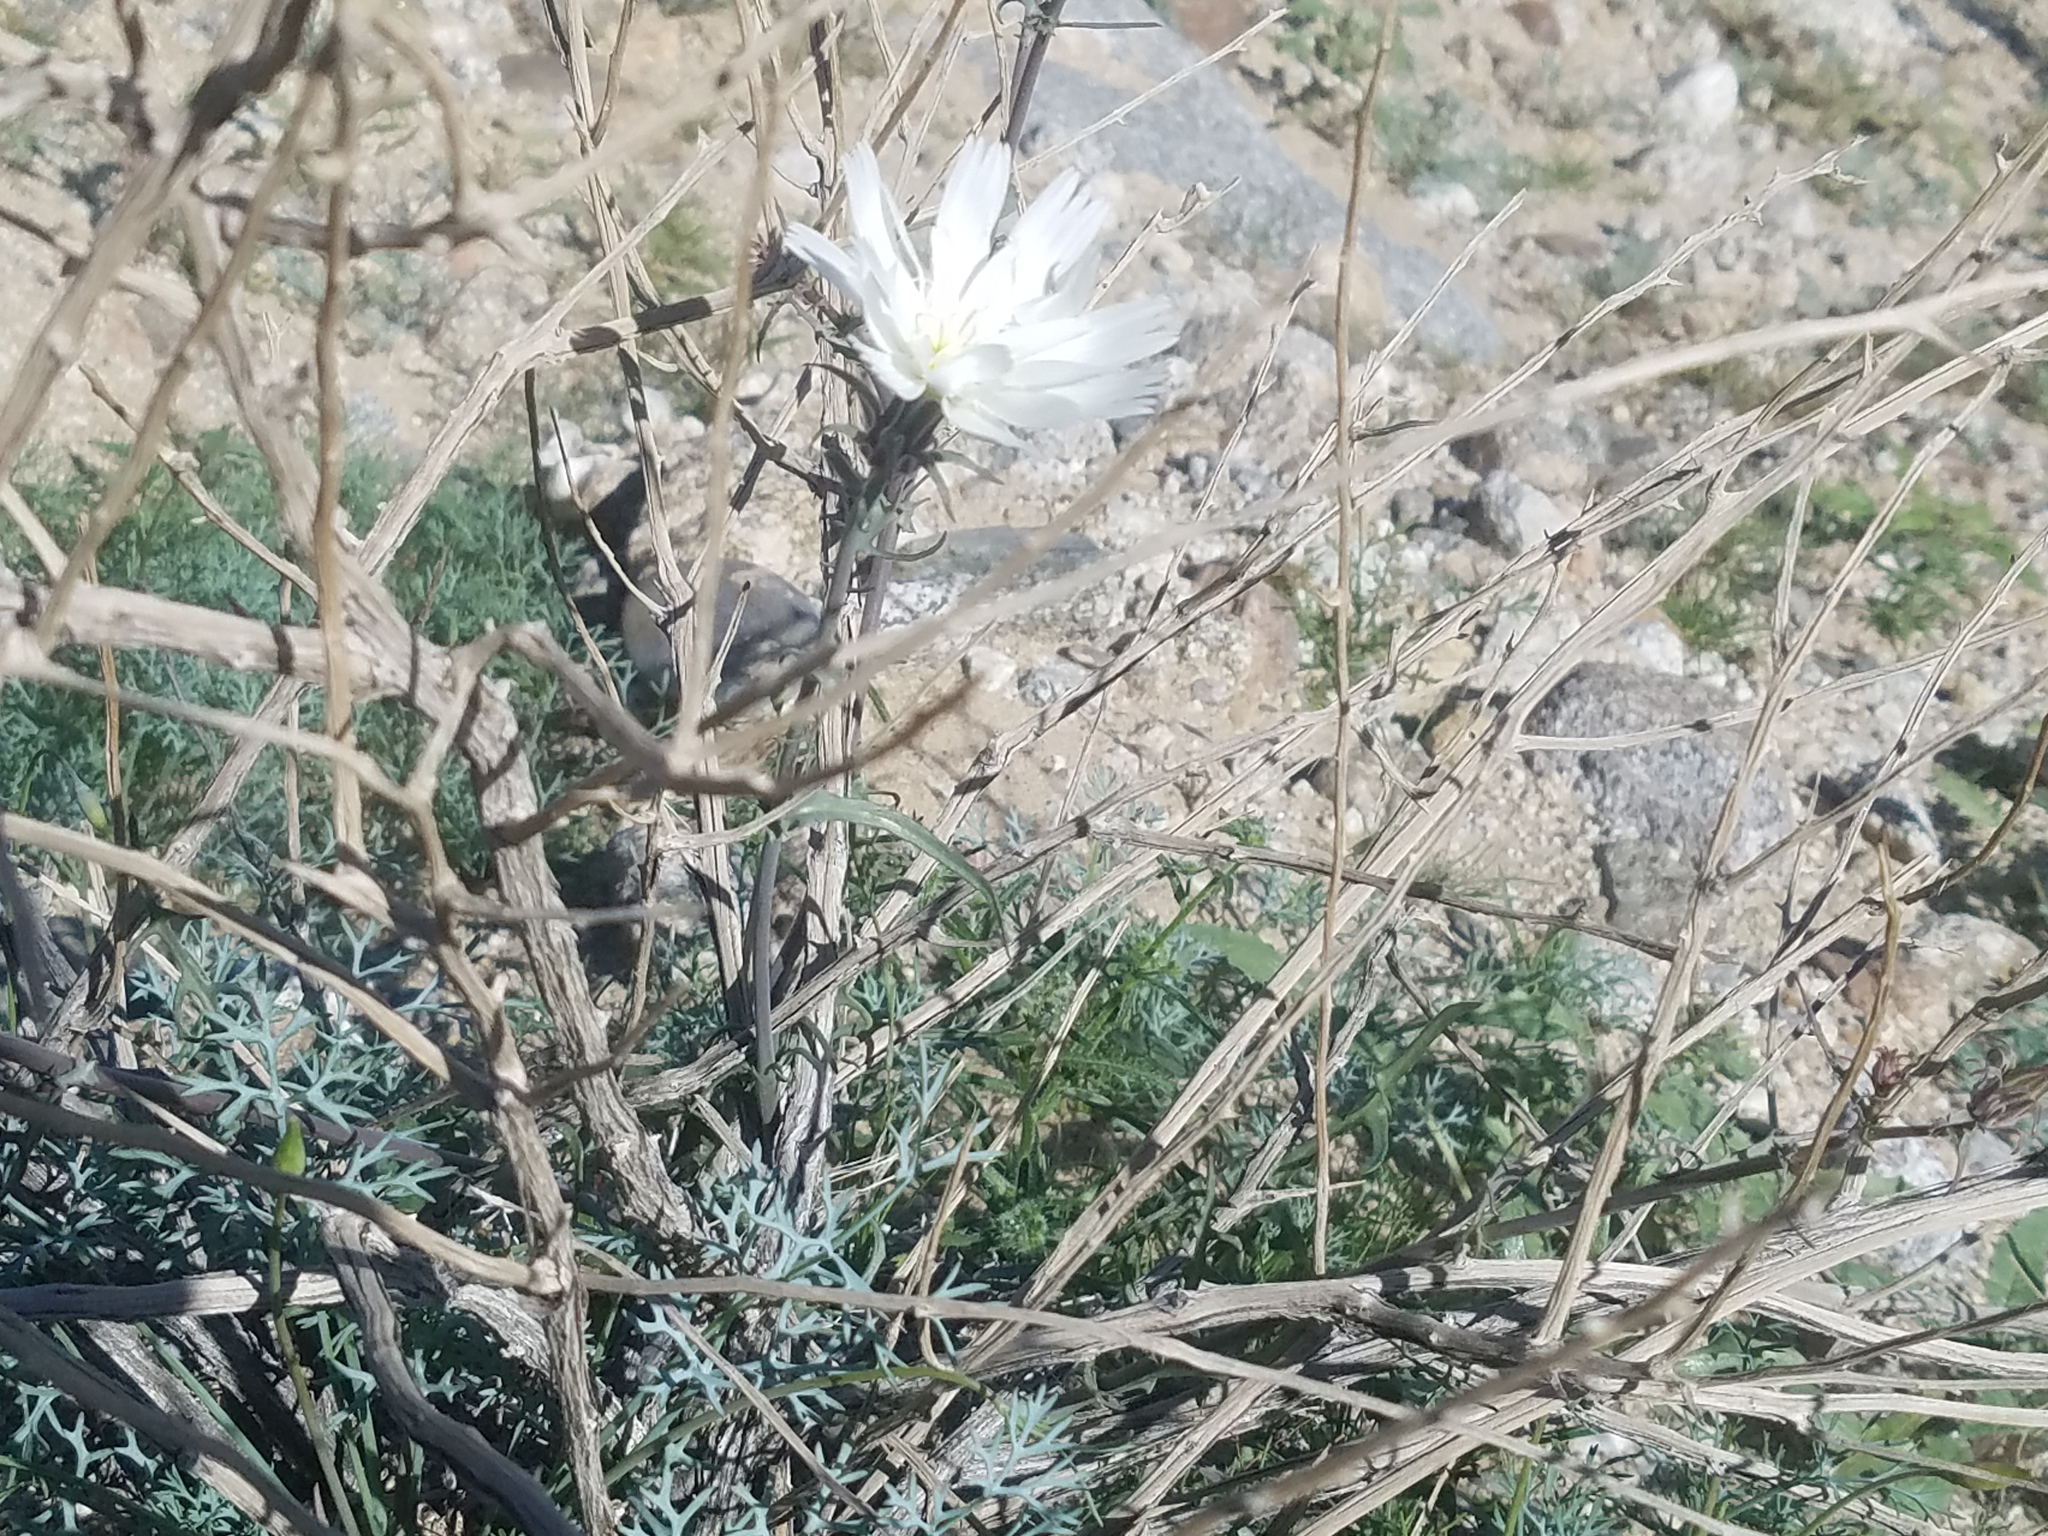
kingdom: Plantae
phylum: Tracheophyta
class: Magnoliopsida
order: Asterales
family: Asteraceae
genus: Rafinesquia
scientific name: Rafinesquia neomexicana
